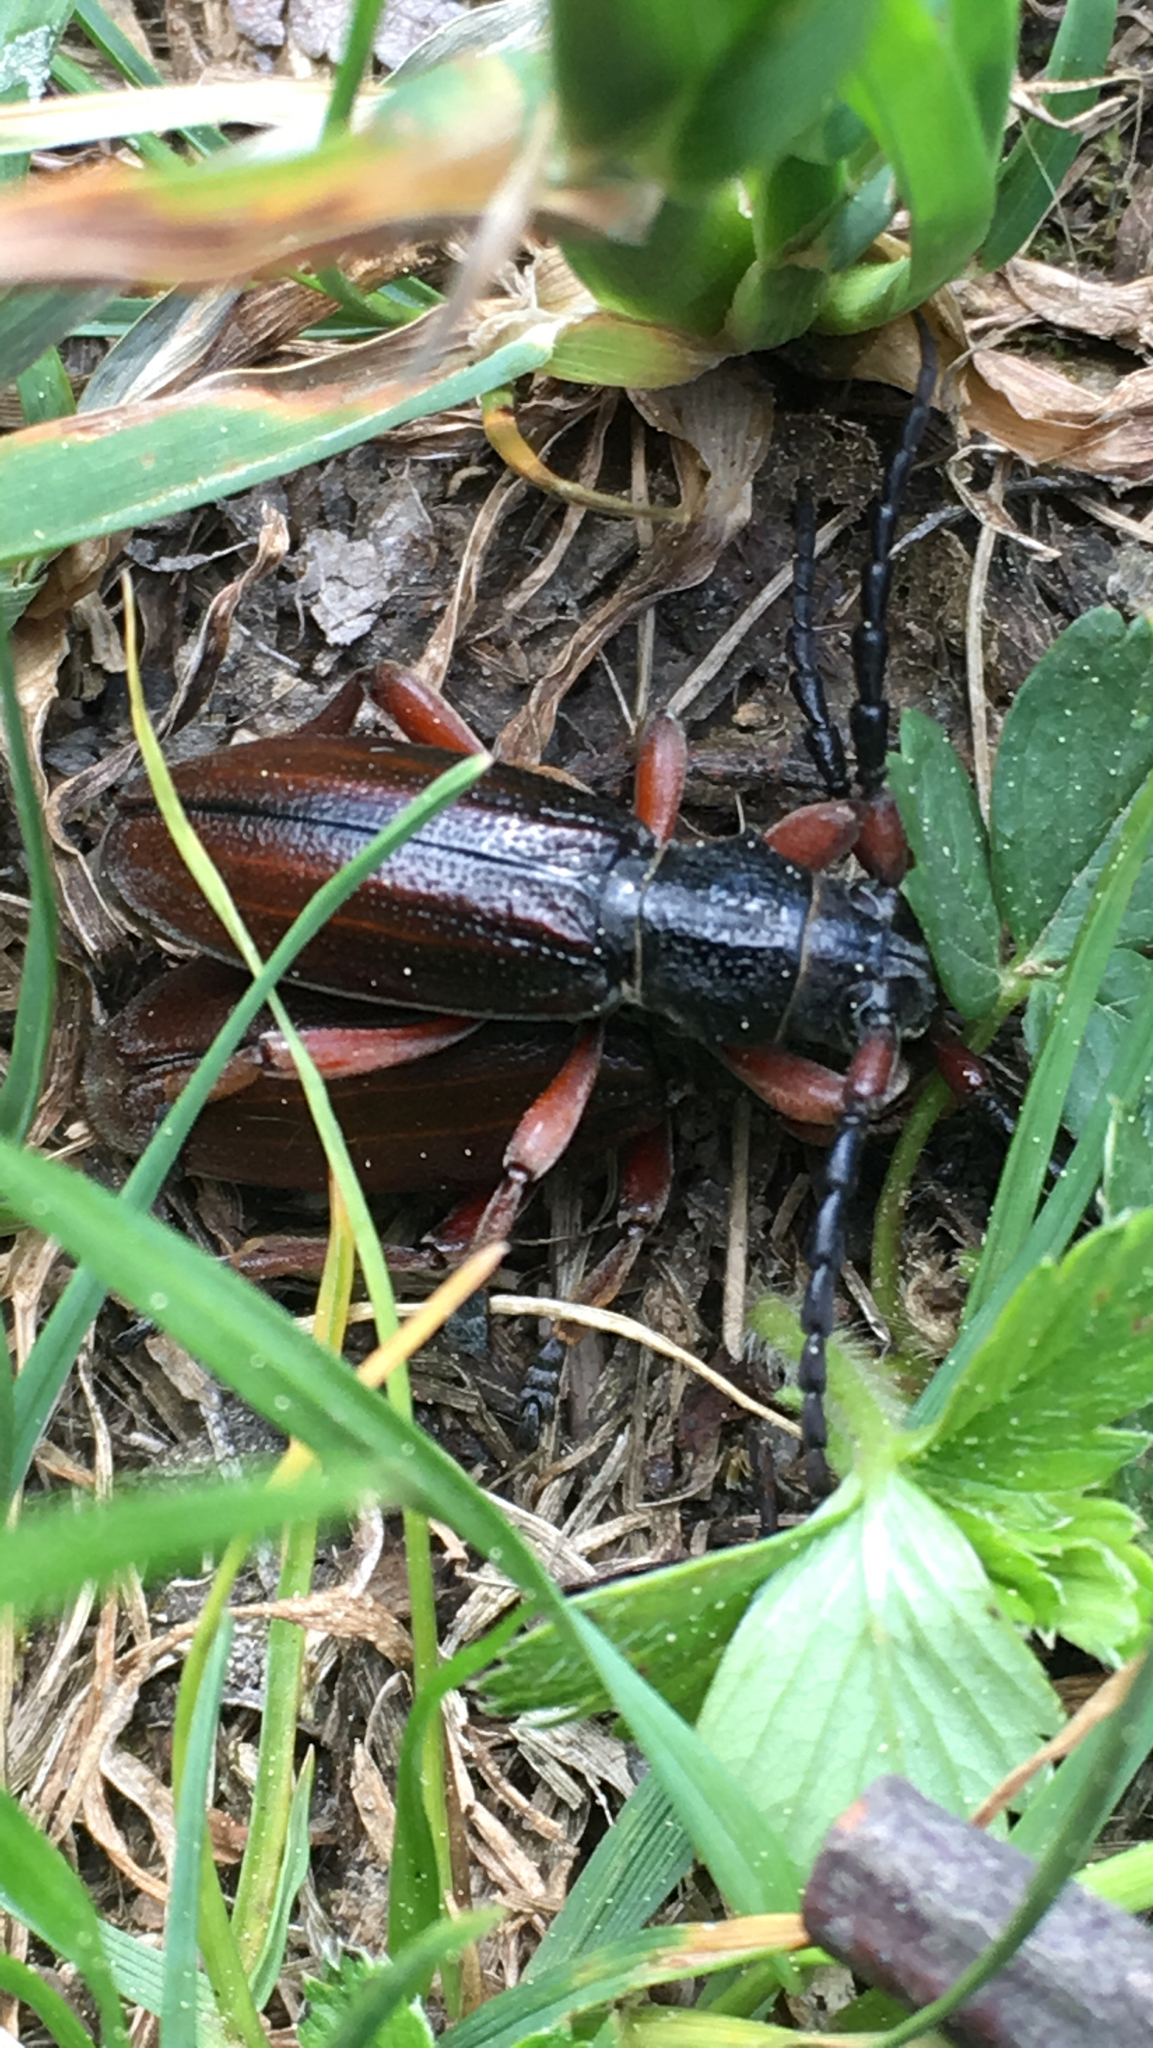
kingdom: Animalia
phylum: Arthropoda
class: Insecta
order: Coleoptera
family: Cerambycidae
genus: Dorcadion
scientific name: Dorcadion fulvum
